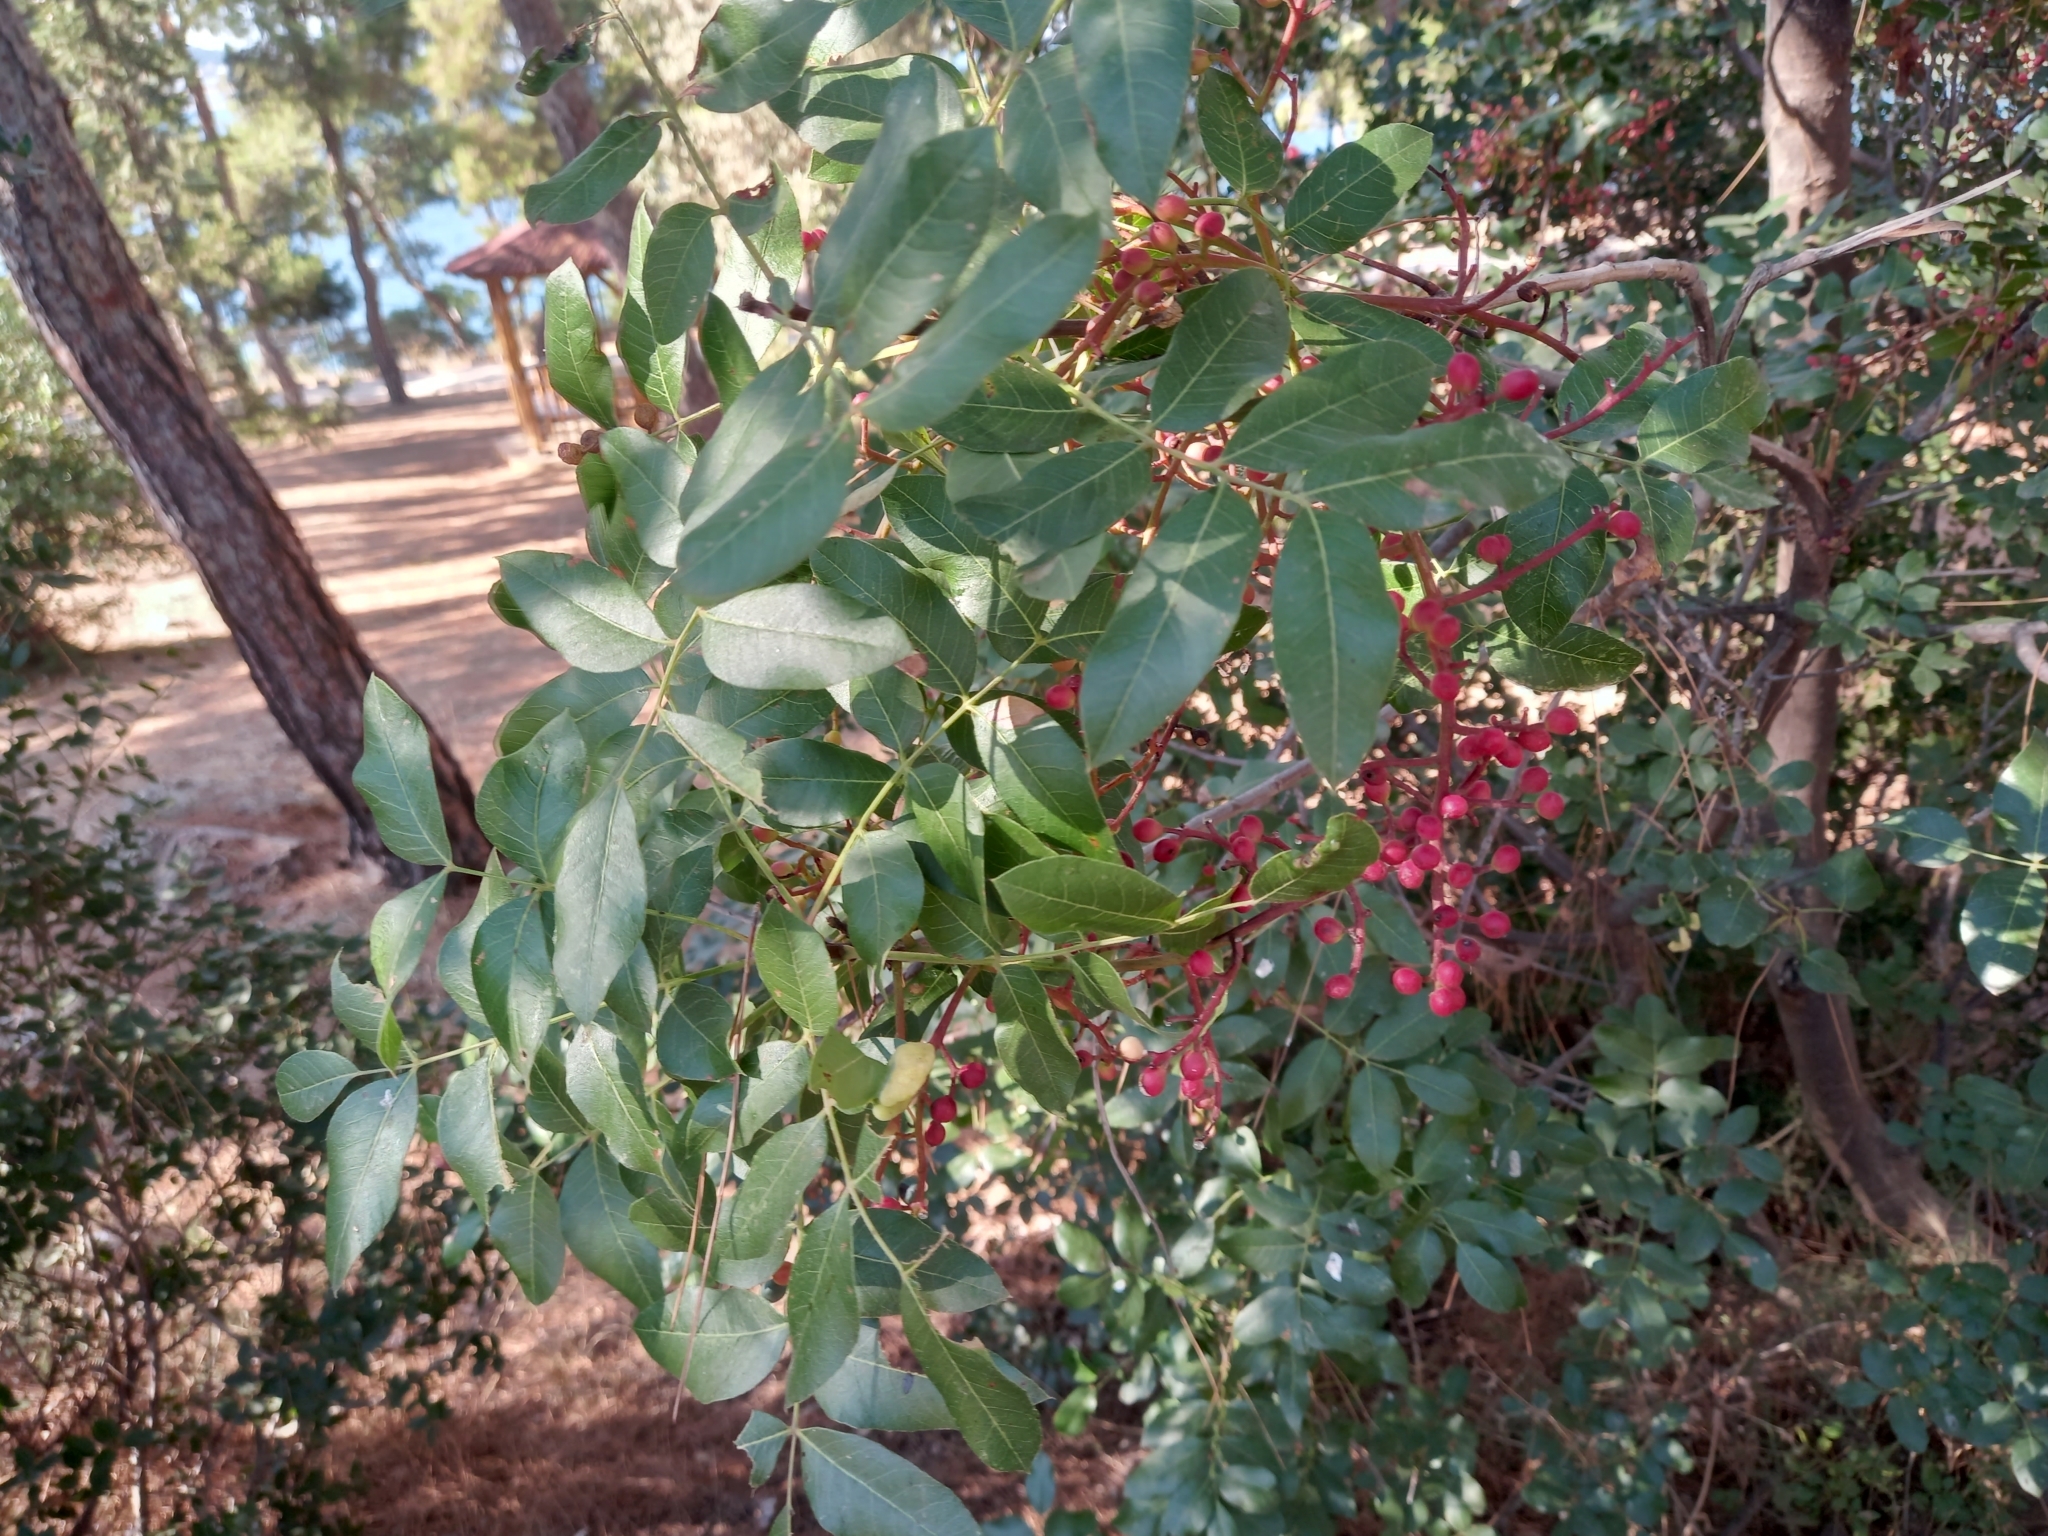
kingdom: Plantae
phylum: Tracheophyta
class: Magnoliopsida
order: Sapindales
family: Anacardiaceae
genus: Pistacia
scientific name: Pistacia terebinthus
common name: Terebinth
